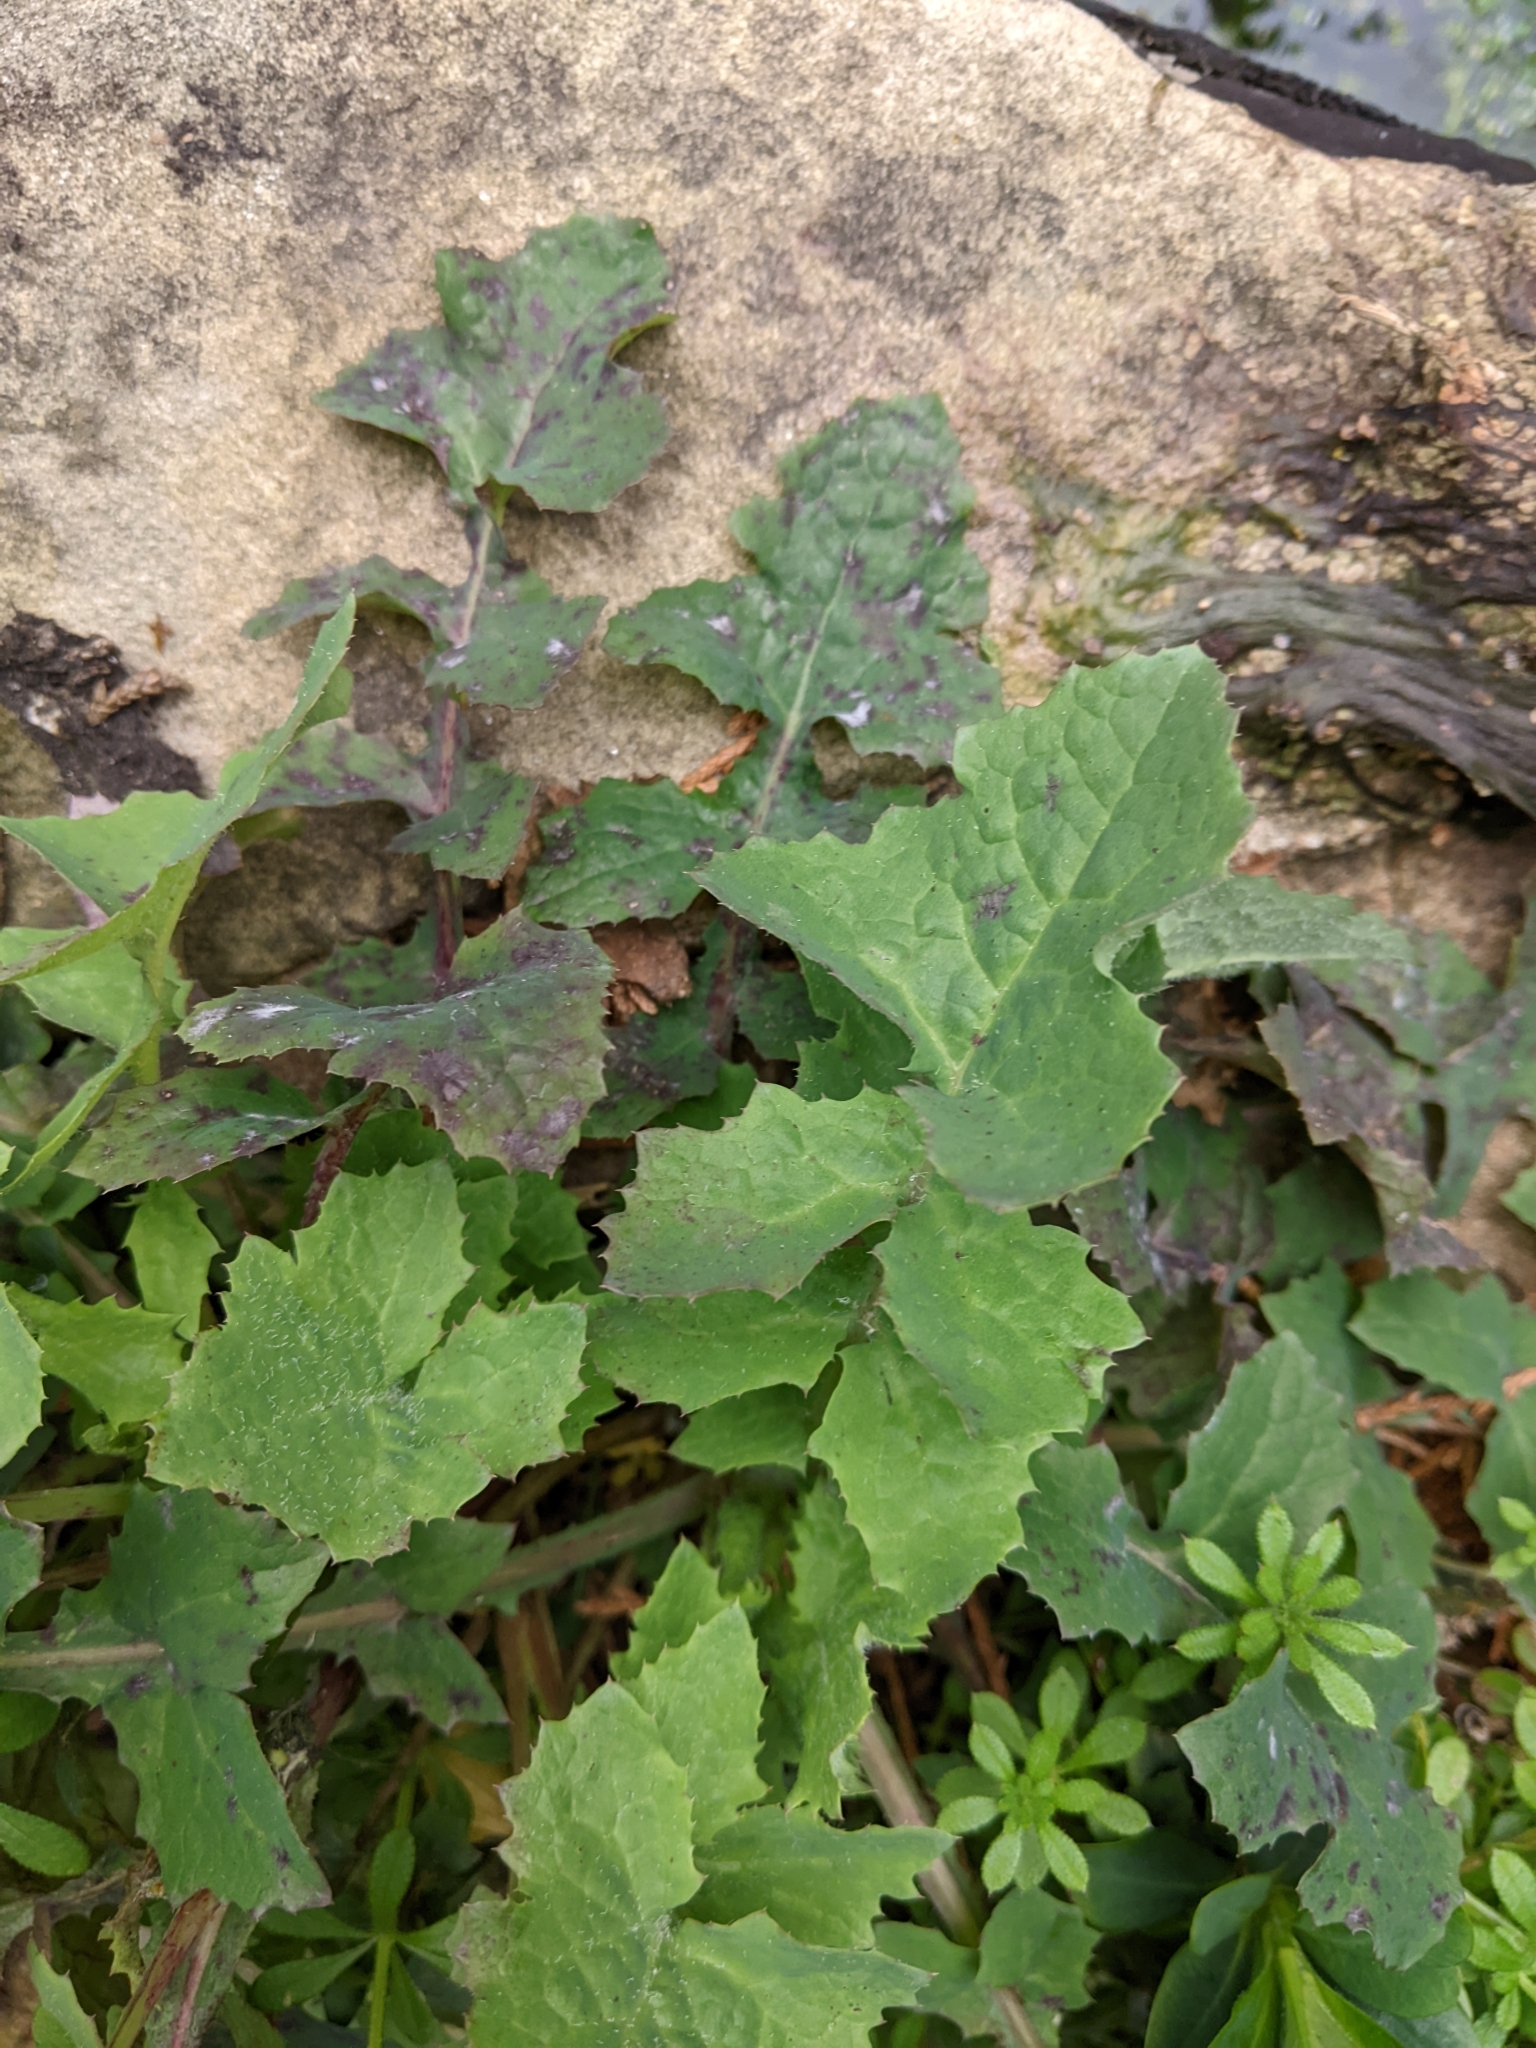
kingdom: Plantae
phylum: Tracheophyta
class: Magnoliopsida
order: Asterales
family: Asteraceae
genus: Sonchus
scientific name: Sonchus oleraceus
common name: Common sowthistle
